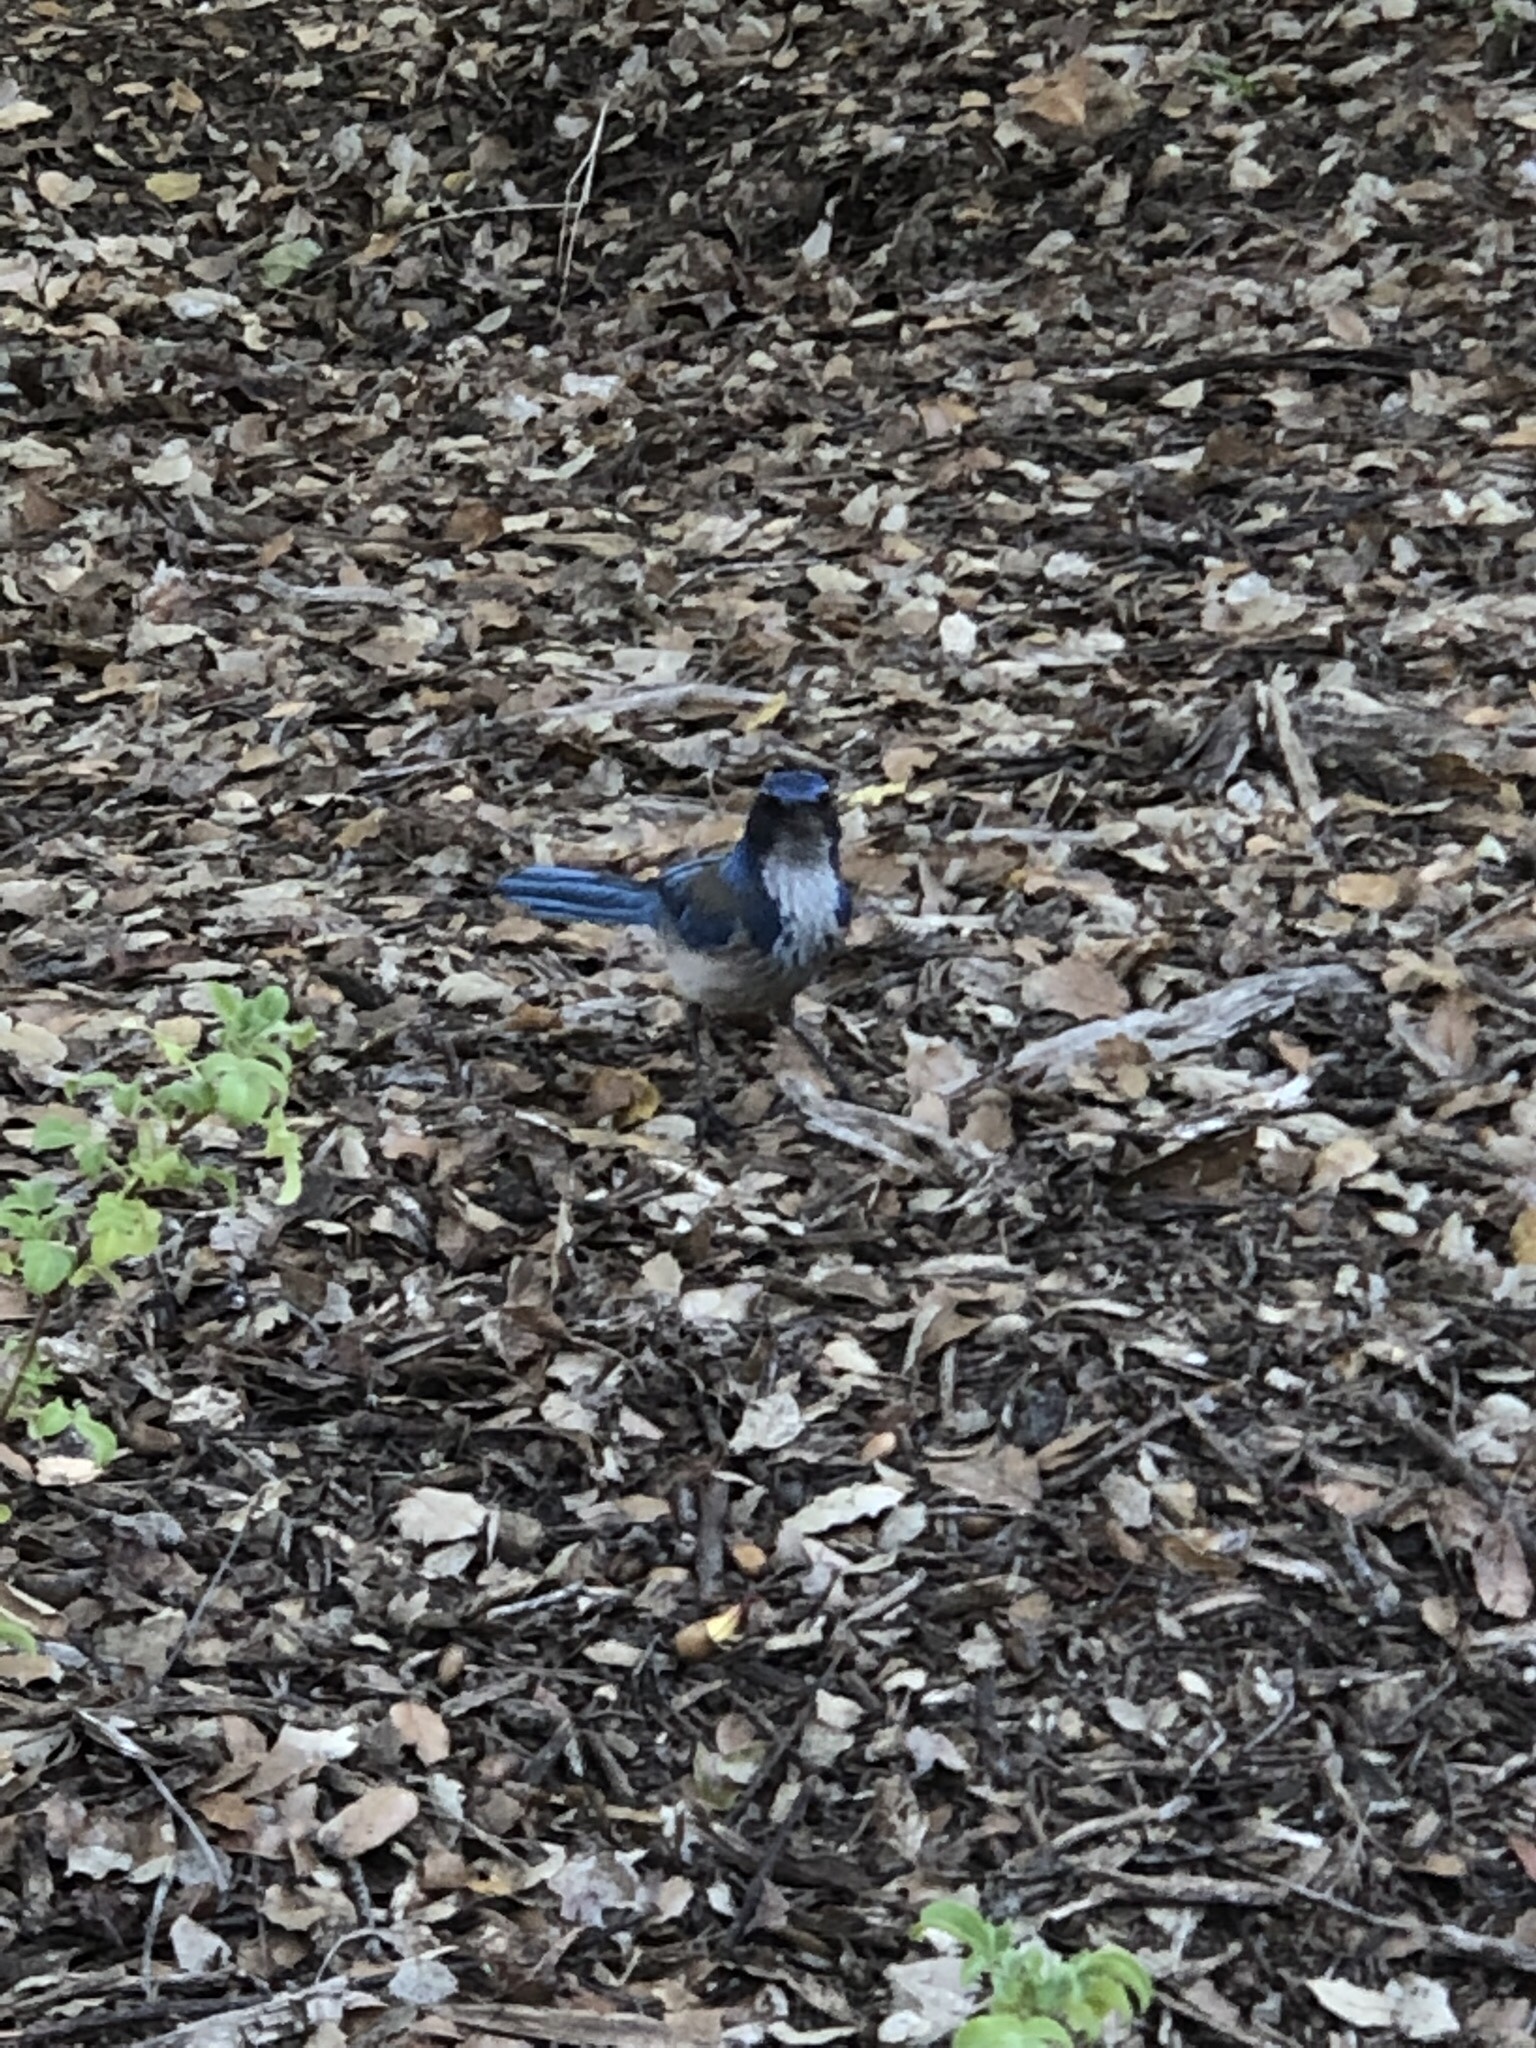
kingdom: Animalia
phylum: Chordata
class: Aves
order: Passeriformes
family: Corvidae
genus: Aphelocoma
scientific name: Aphelocoma californica
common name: California scrub-jay
